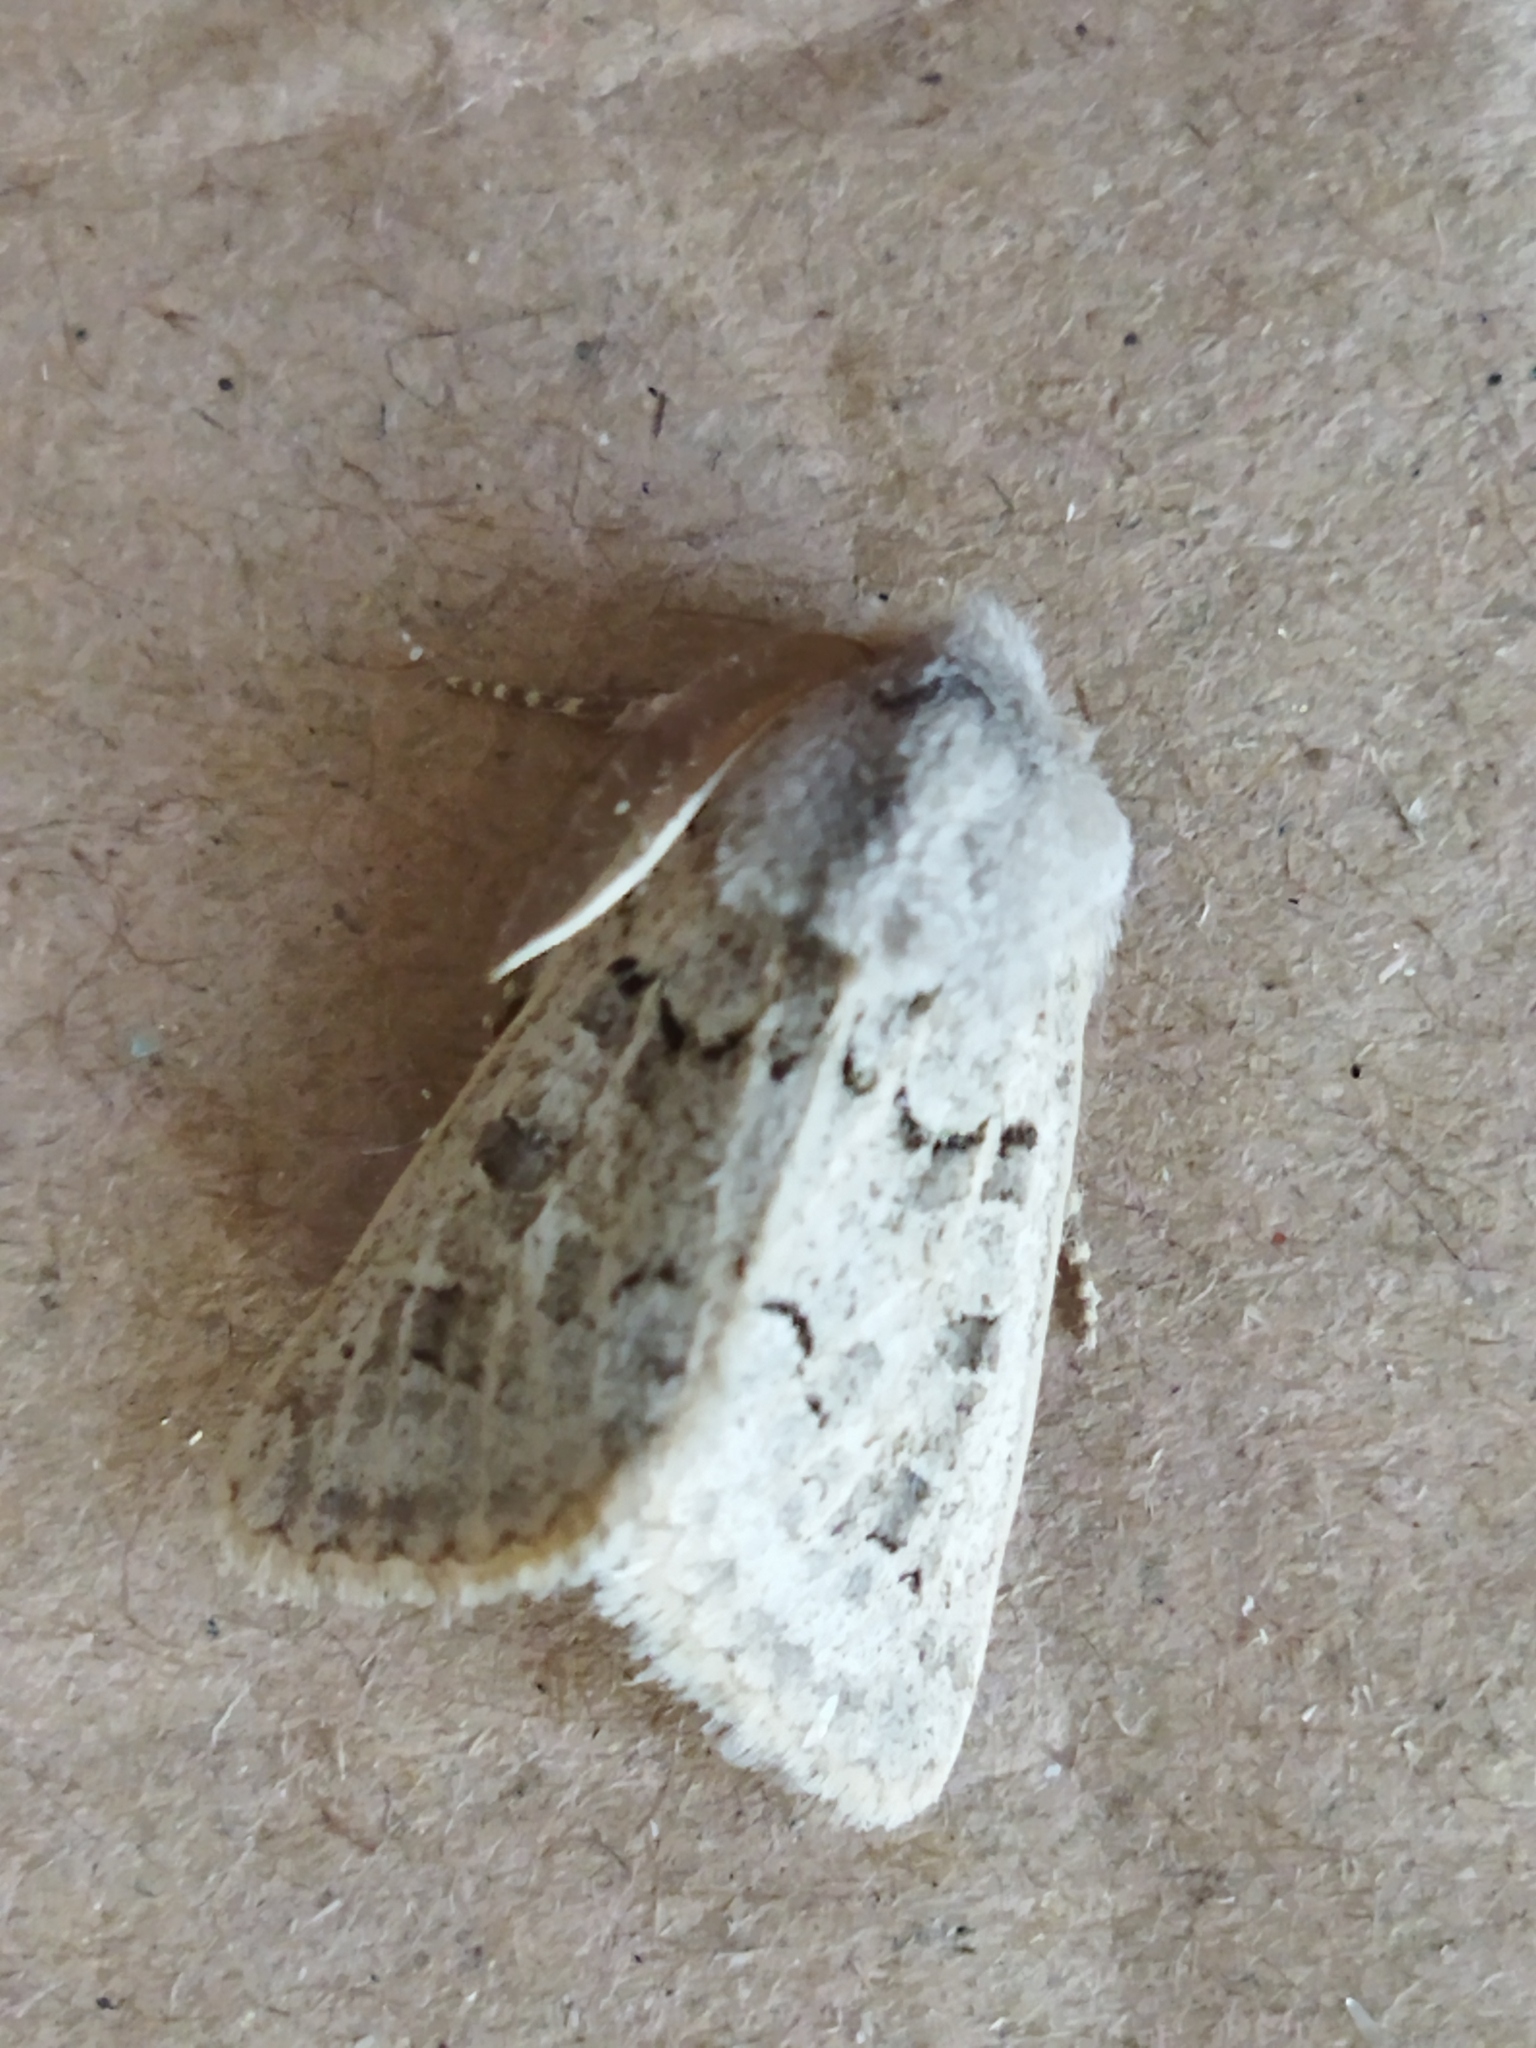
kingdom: Animalia
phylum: Arthropoda
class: Insecta
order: Lepidoptera
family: Noctuidae
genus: Episema
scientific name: Episema lederi
